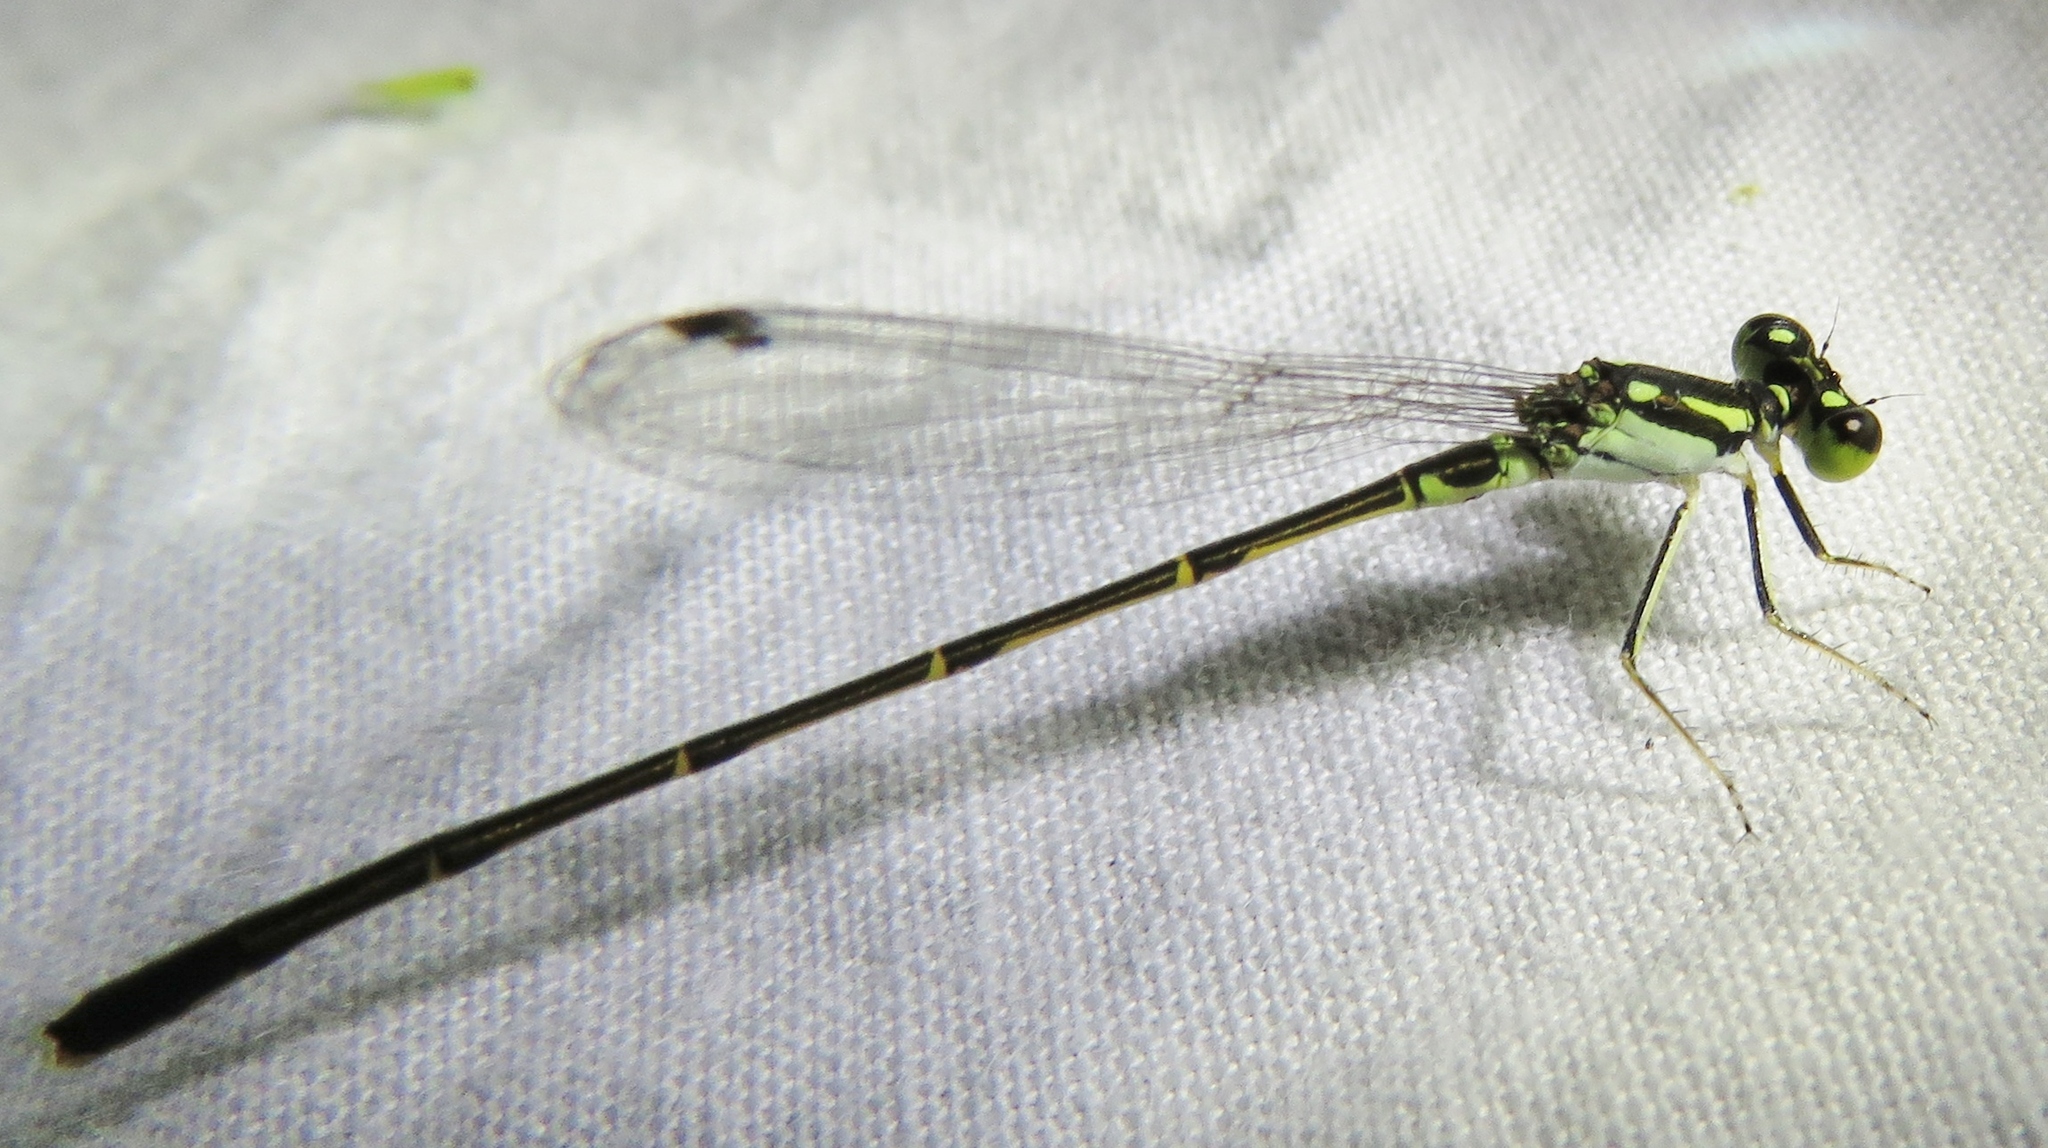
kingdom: Animalia
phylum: Arthropoda
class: Insecta
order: Odonata
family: Coenagrionidae
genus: Ischnura
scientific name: Ischnura posita
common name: Fragile forktail
